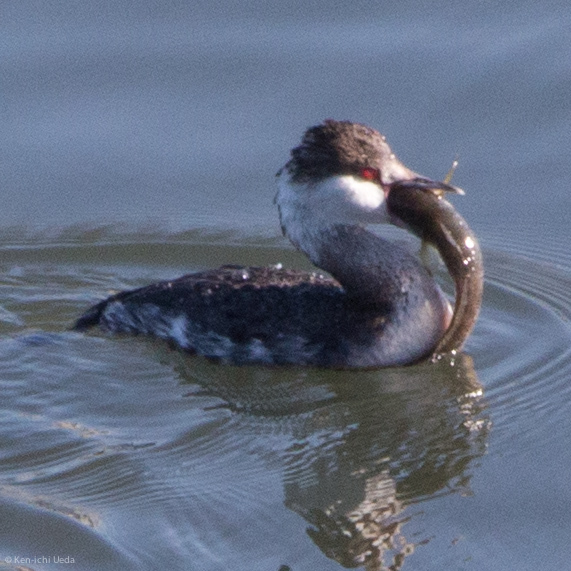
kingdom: Animalia
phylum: Chordata
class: Aves
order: Podicipediformes
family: Podicipedidae
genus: Podiceps
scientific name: Podiceps auritus
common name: Horned grebe
